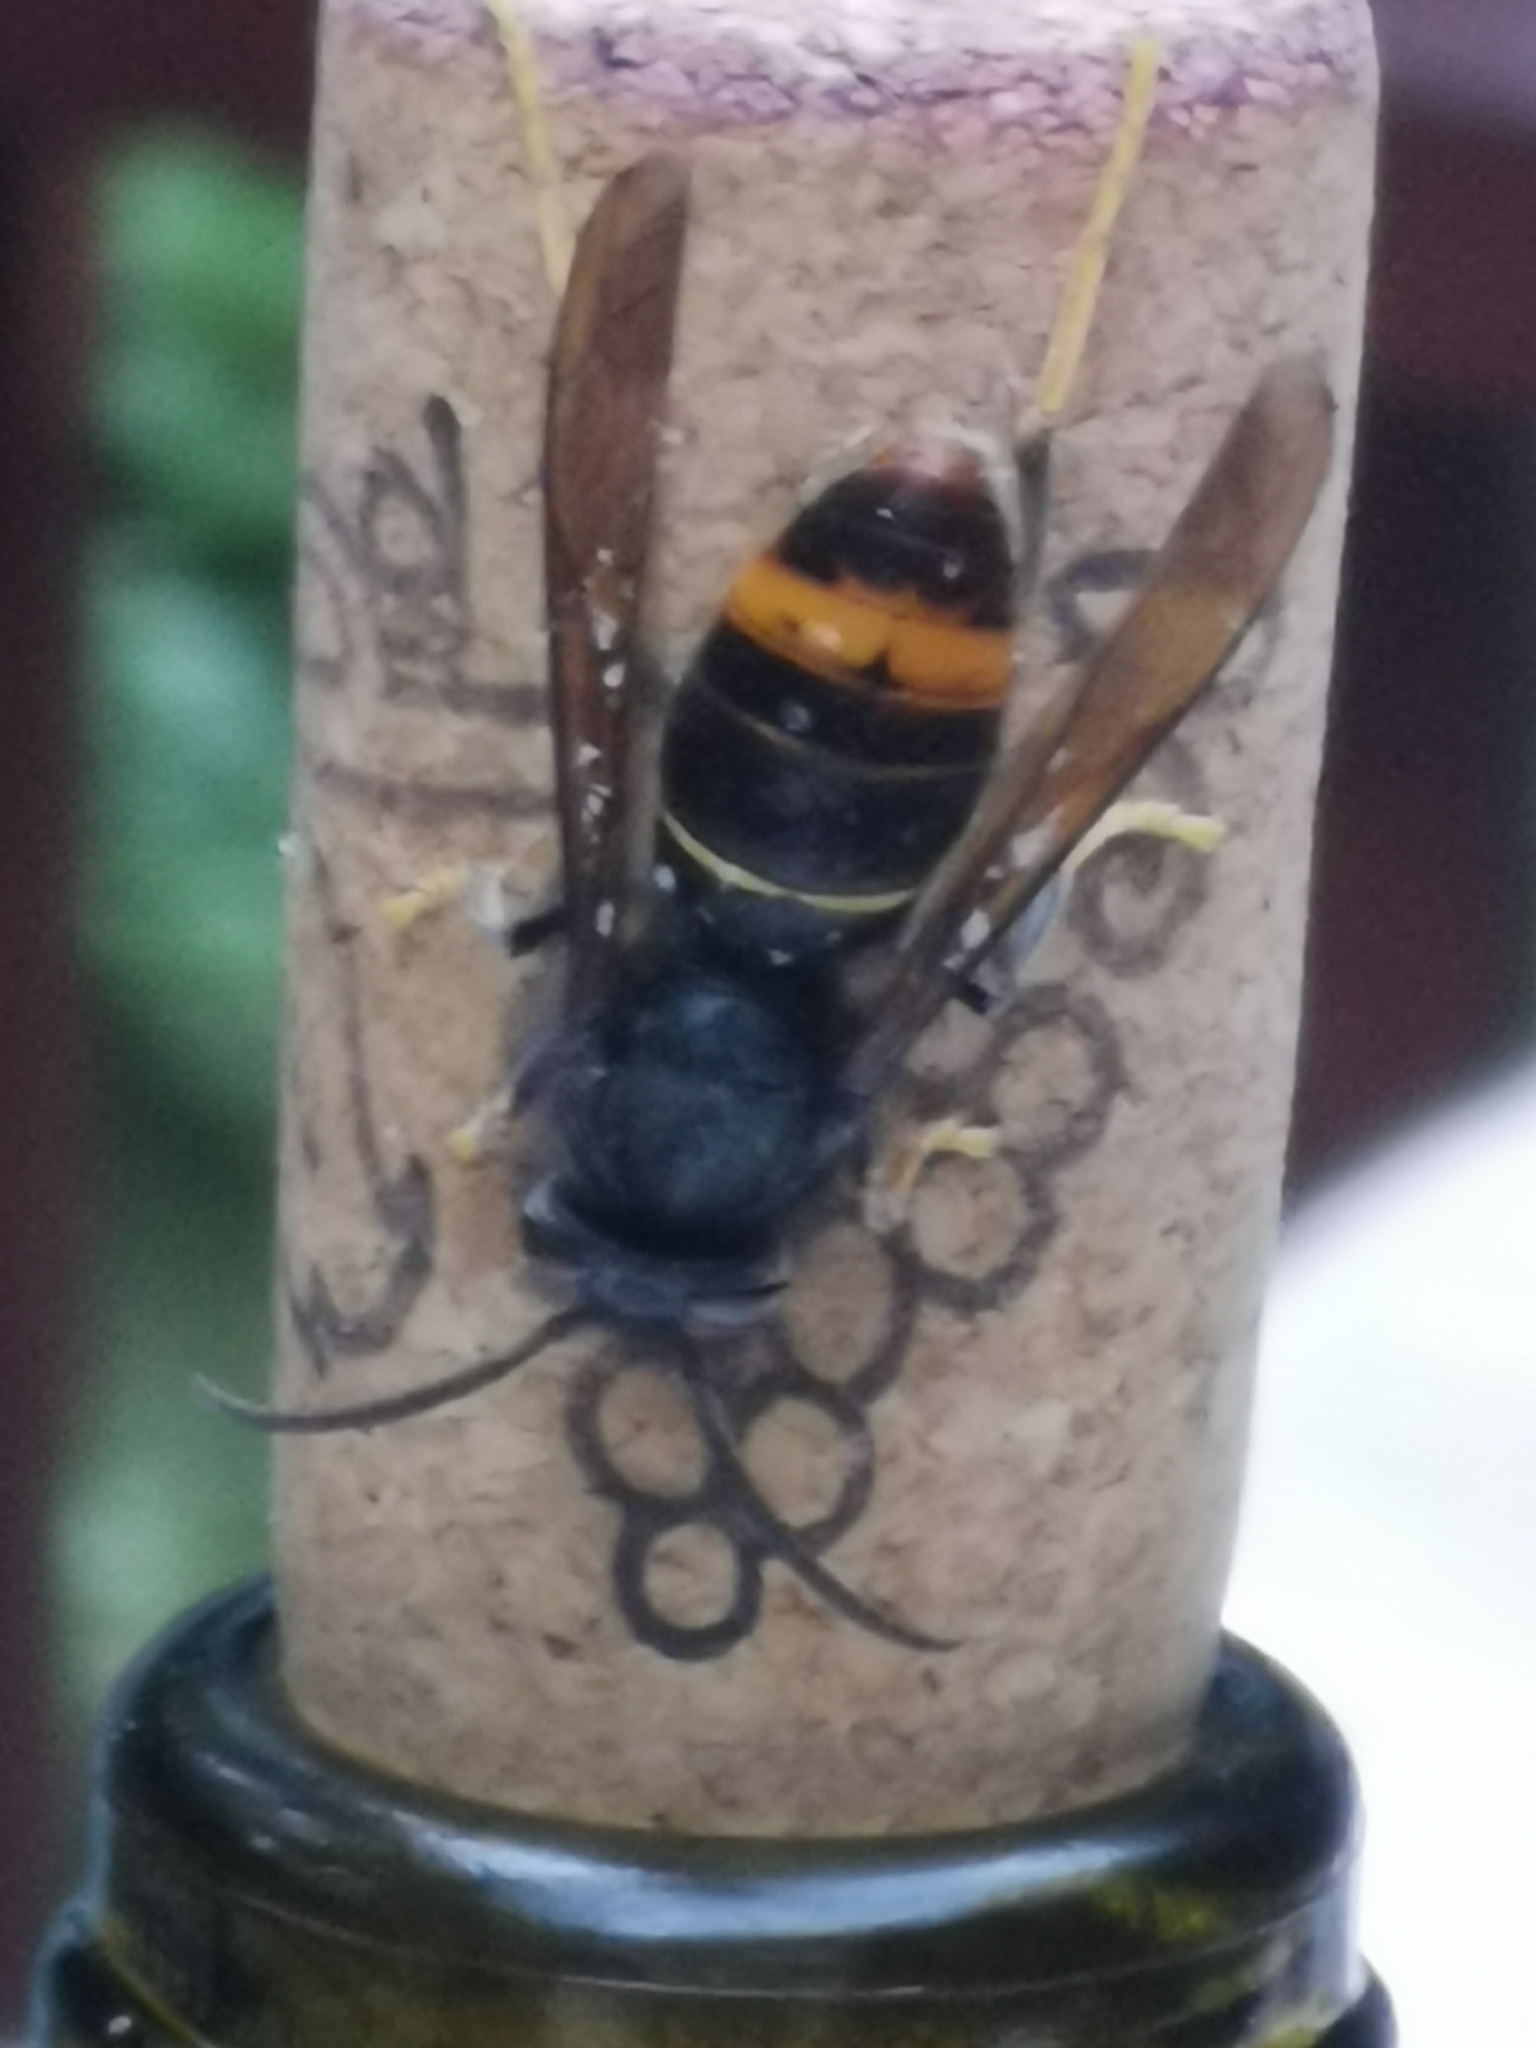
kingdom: Animalia
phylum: Arthropoda
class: Insecta
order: Hymenoptera
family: Vespidae
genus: Vespa
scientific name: Vespa velutina
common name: Asian hornet
